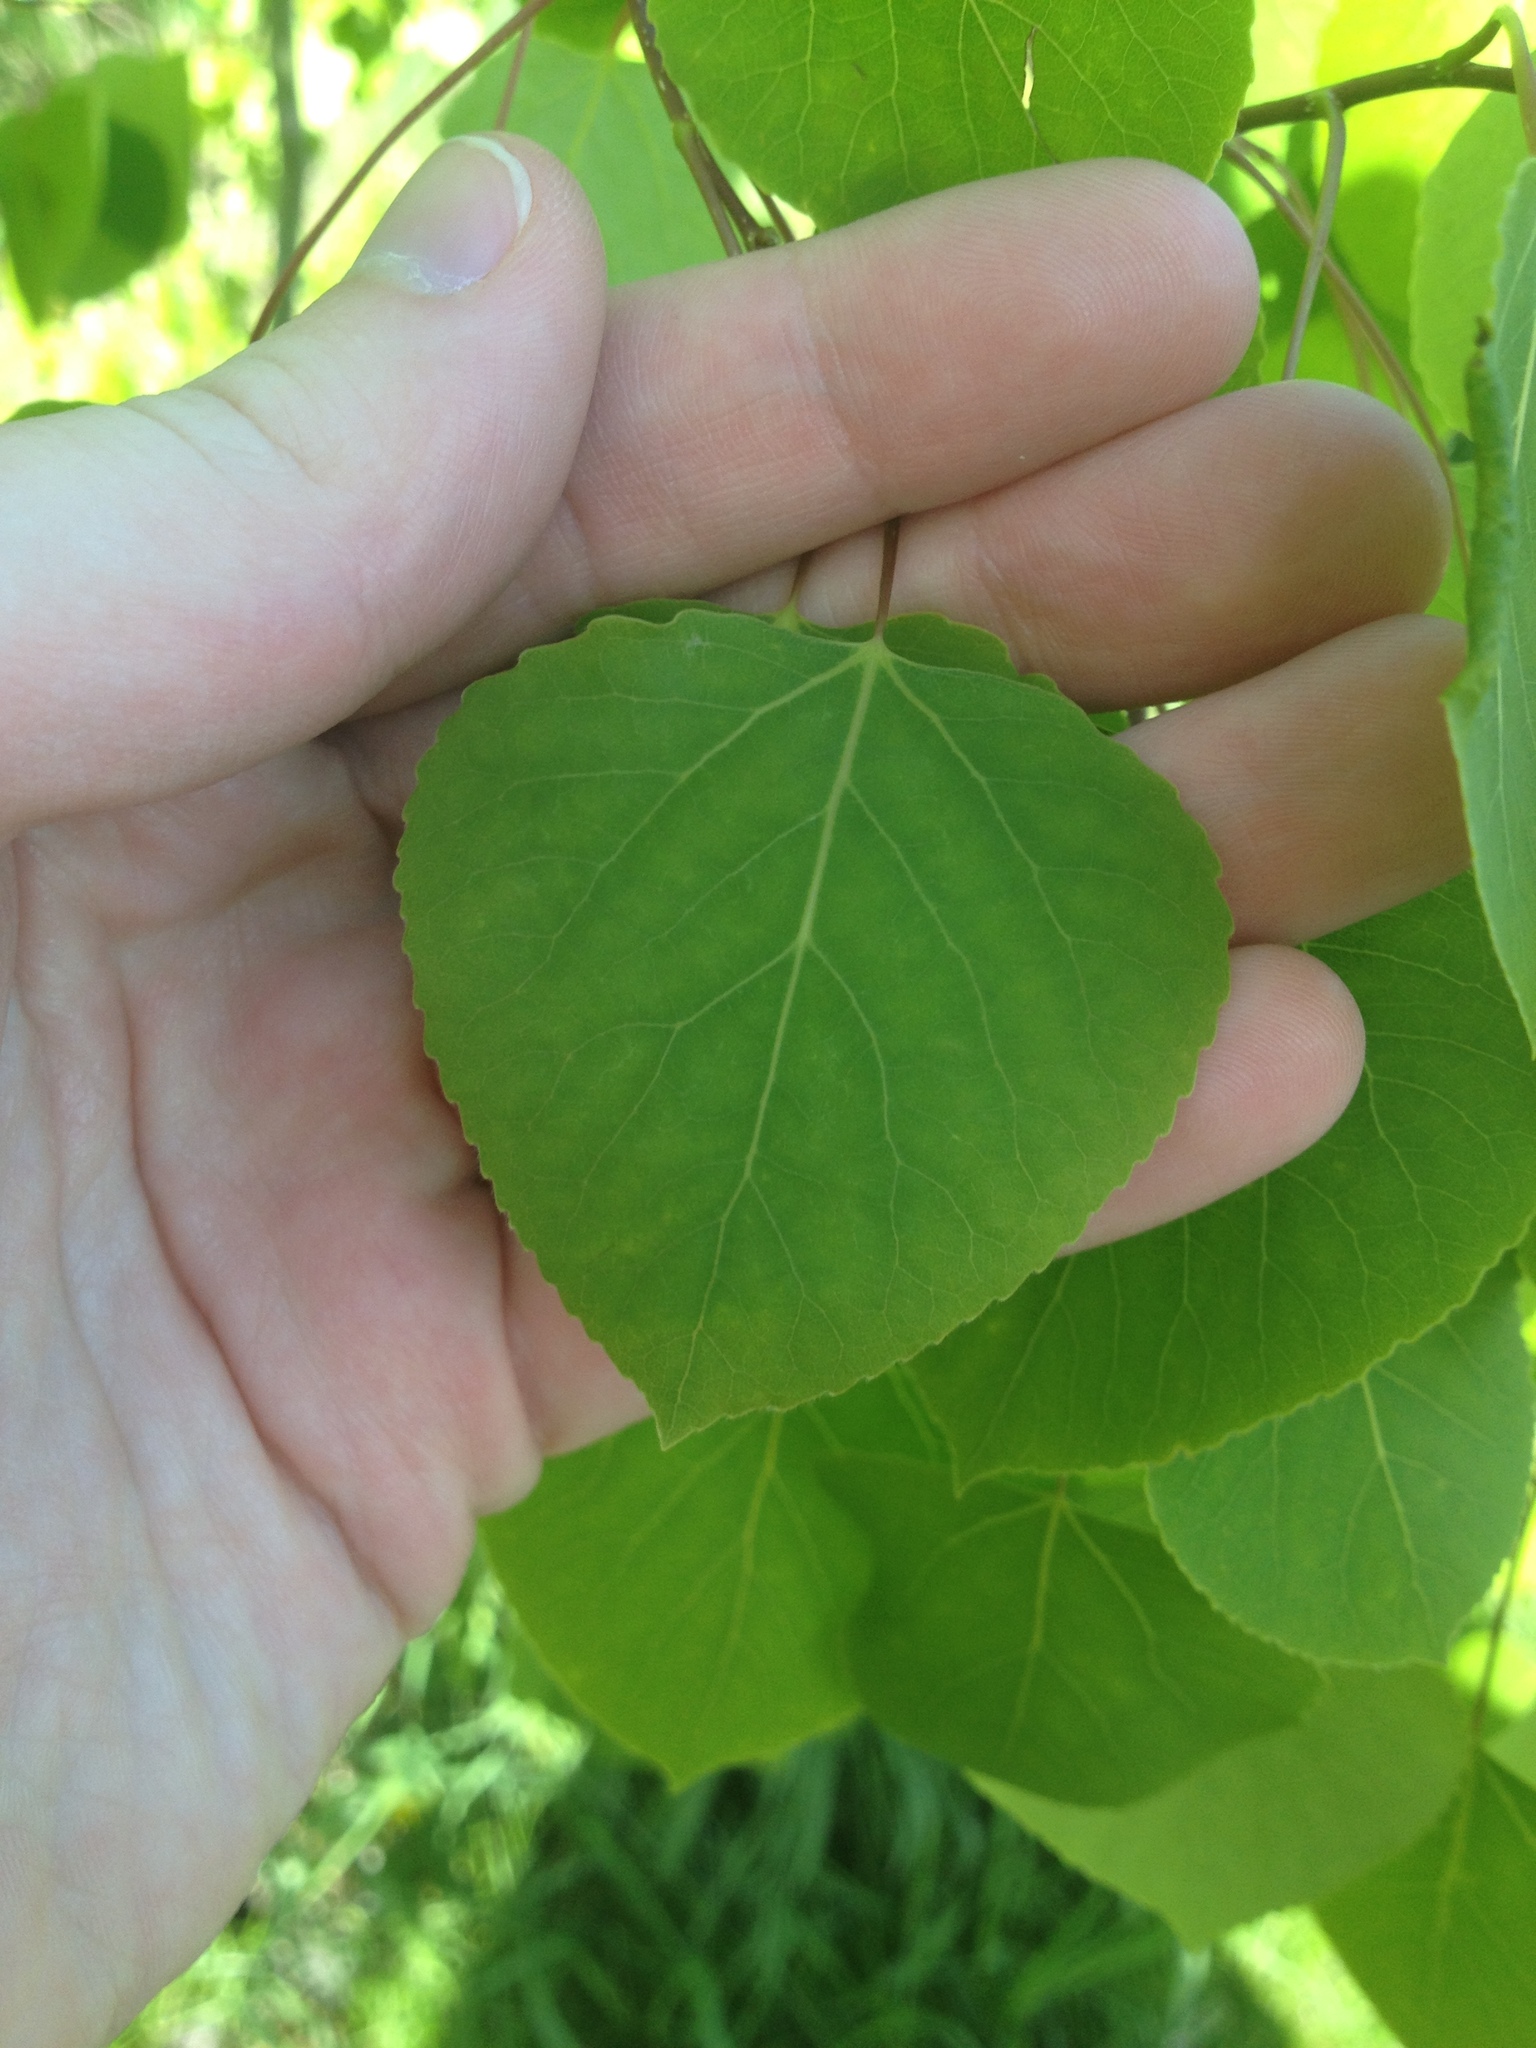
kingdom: Plantae
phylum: Tracheophyta
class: Magnoliopsida
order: Malpighiales
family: Salicaceae
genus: Populus
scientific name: Populus tremuloides
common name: Quaking aspen
